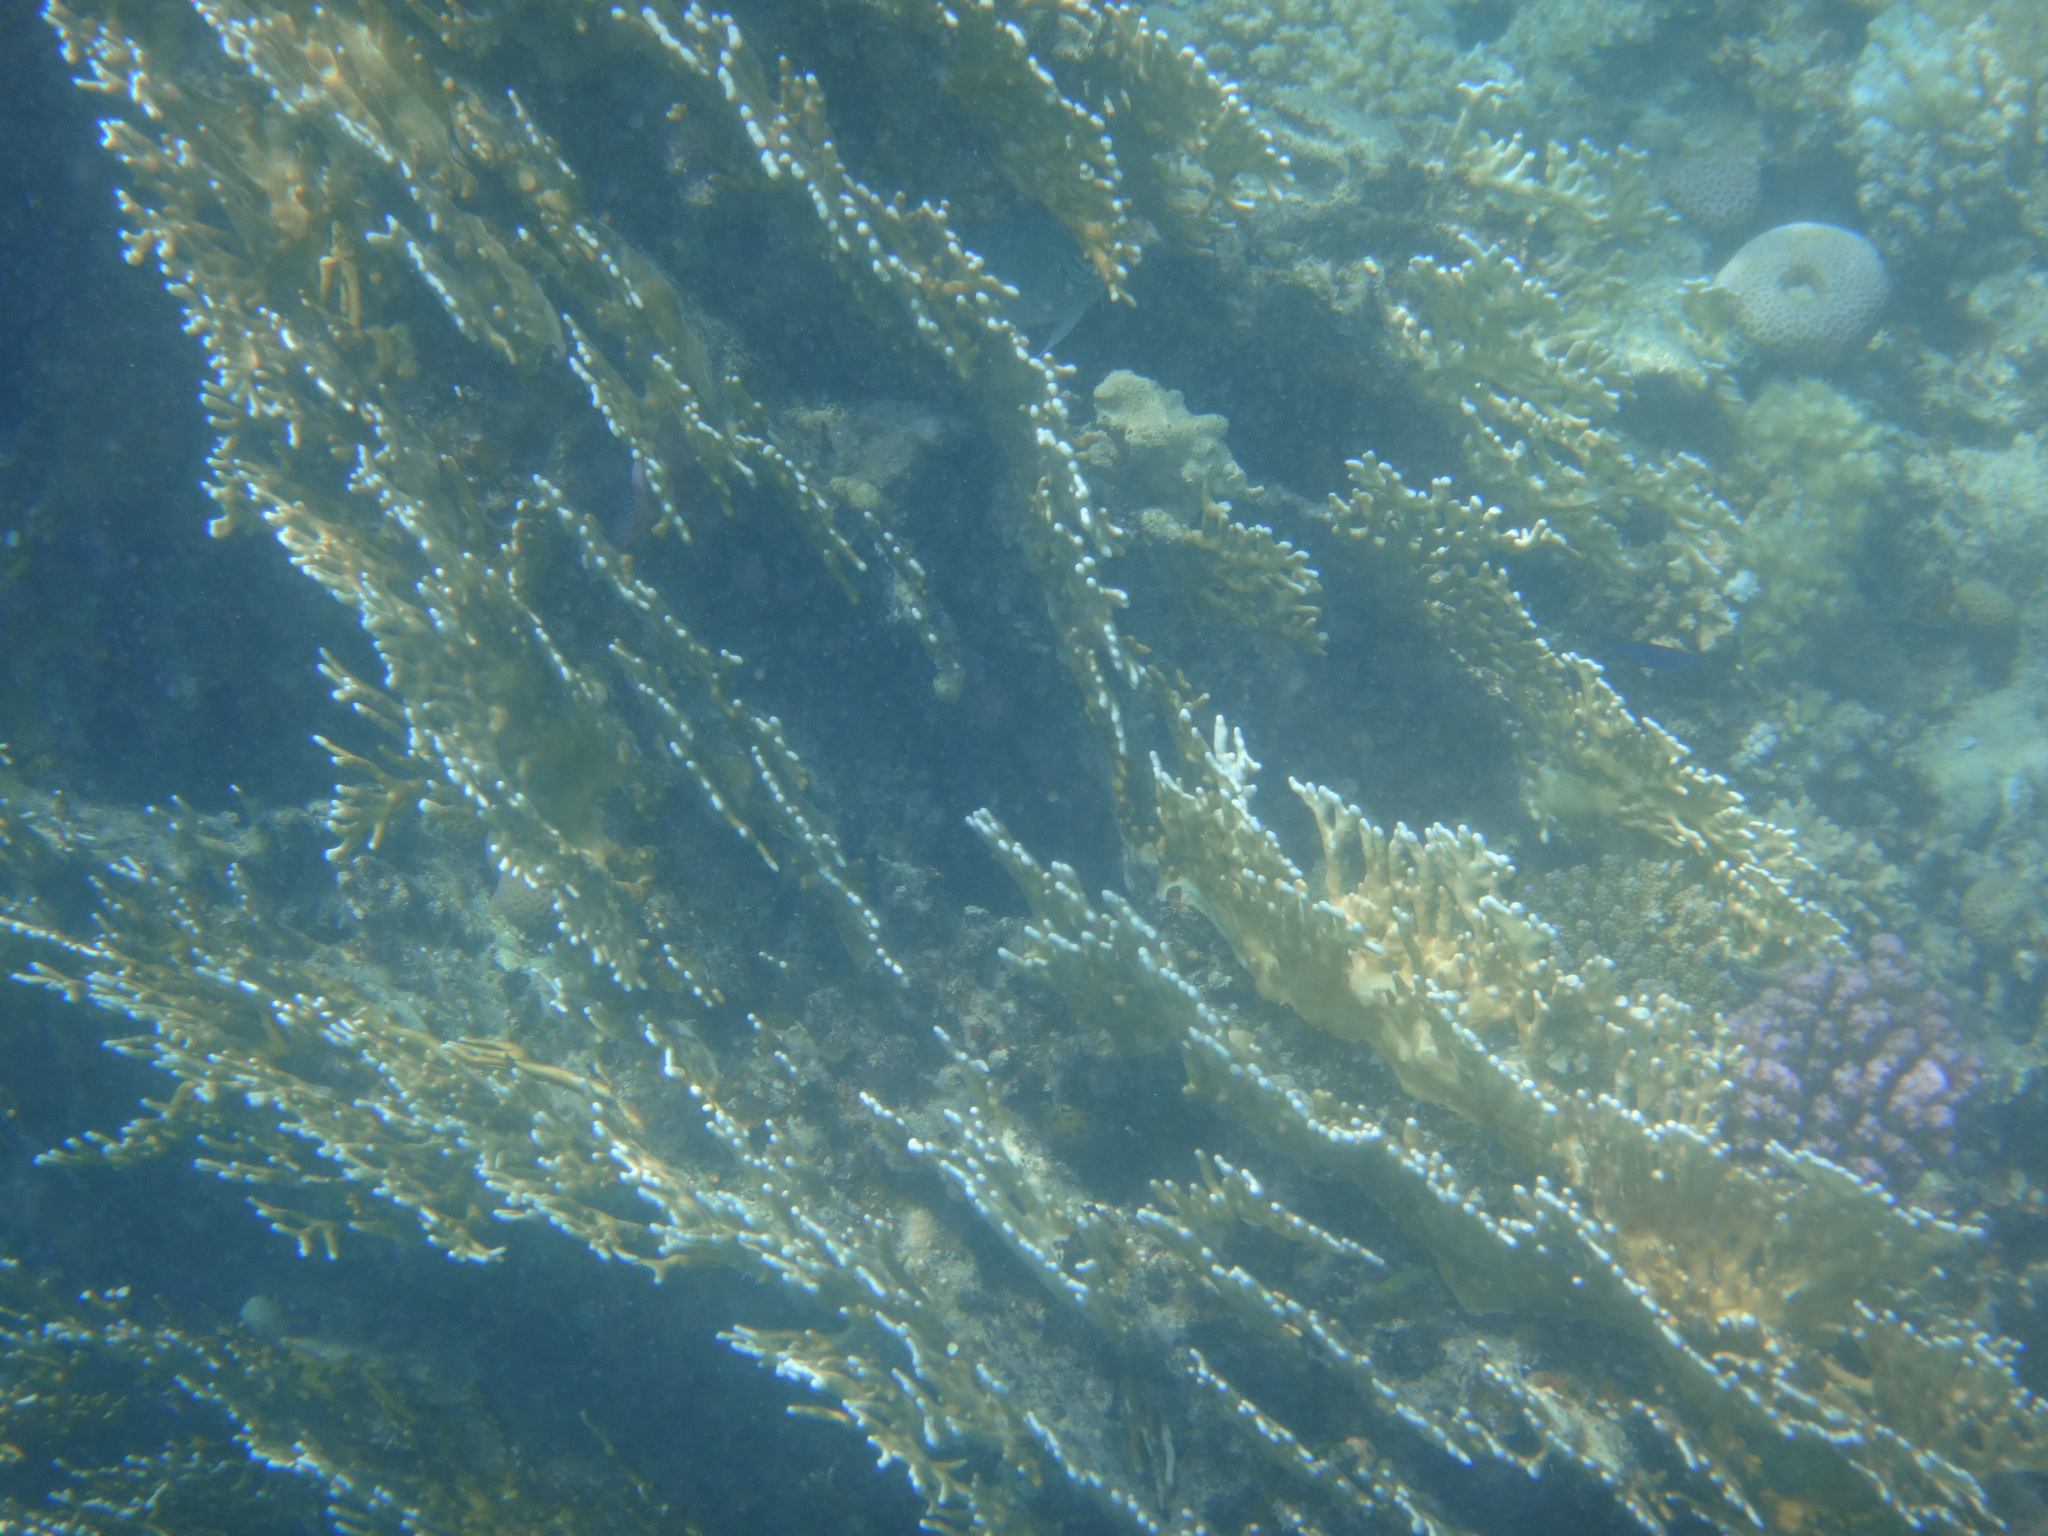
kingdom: Animalia
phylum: Cnidaria
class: Hydrozoa
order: Anthoathecata
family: Milleporidae
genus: Millepora
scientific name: Millepora dichotoma
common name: Ramified fire coral
